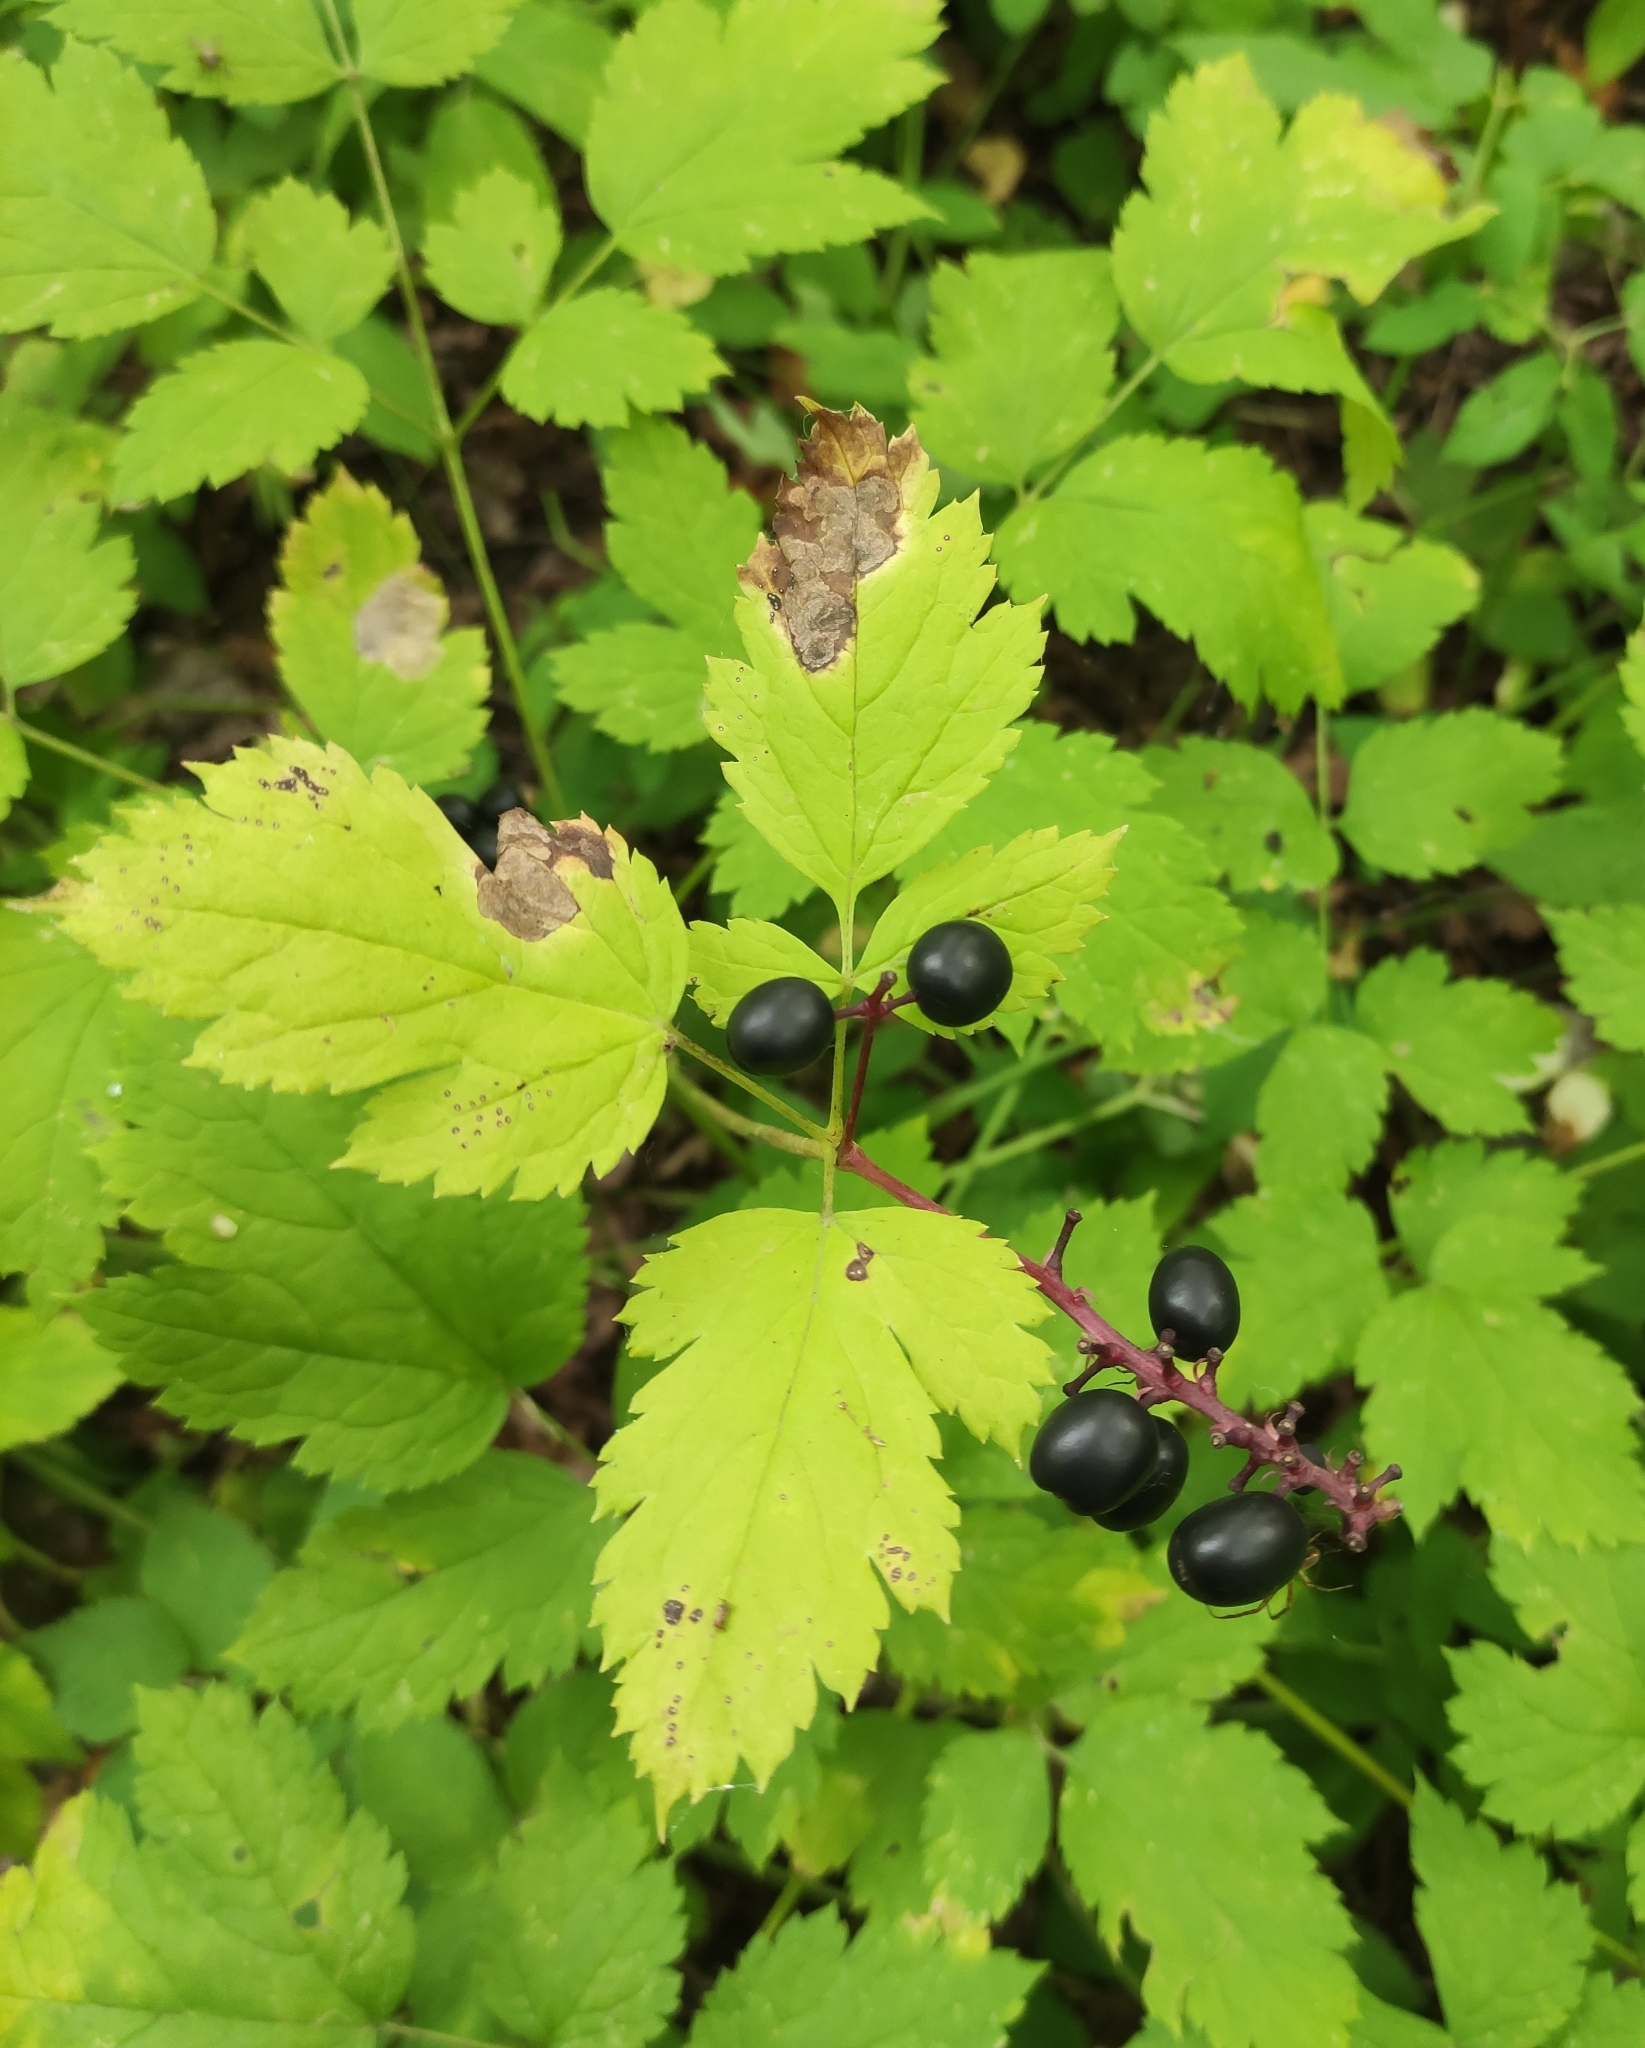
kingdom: Plantae
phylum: Tracheophyta
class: Magnoliopsida
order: Ranunculales
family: Ranunculaceae
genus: Actaea
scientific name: Actaea spicata
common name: Baneberry
